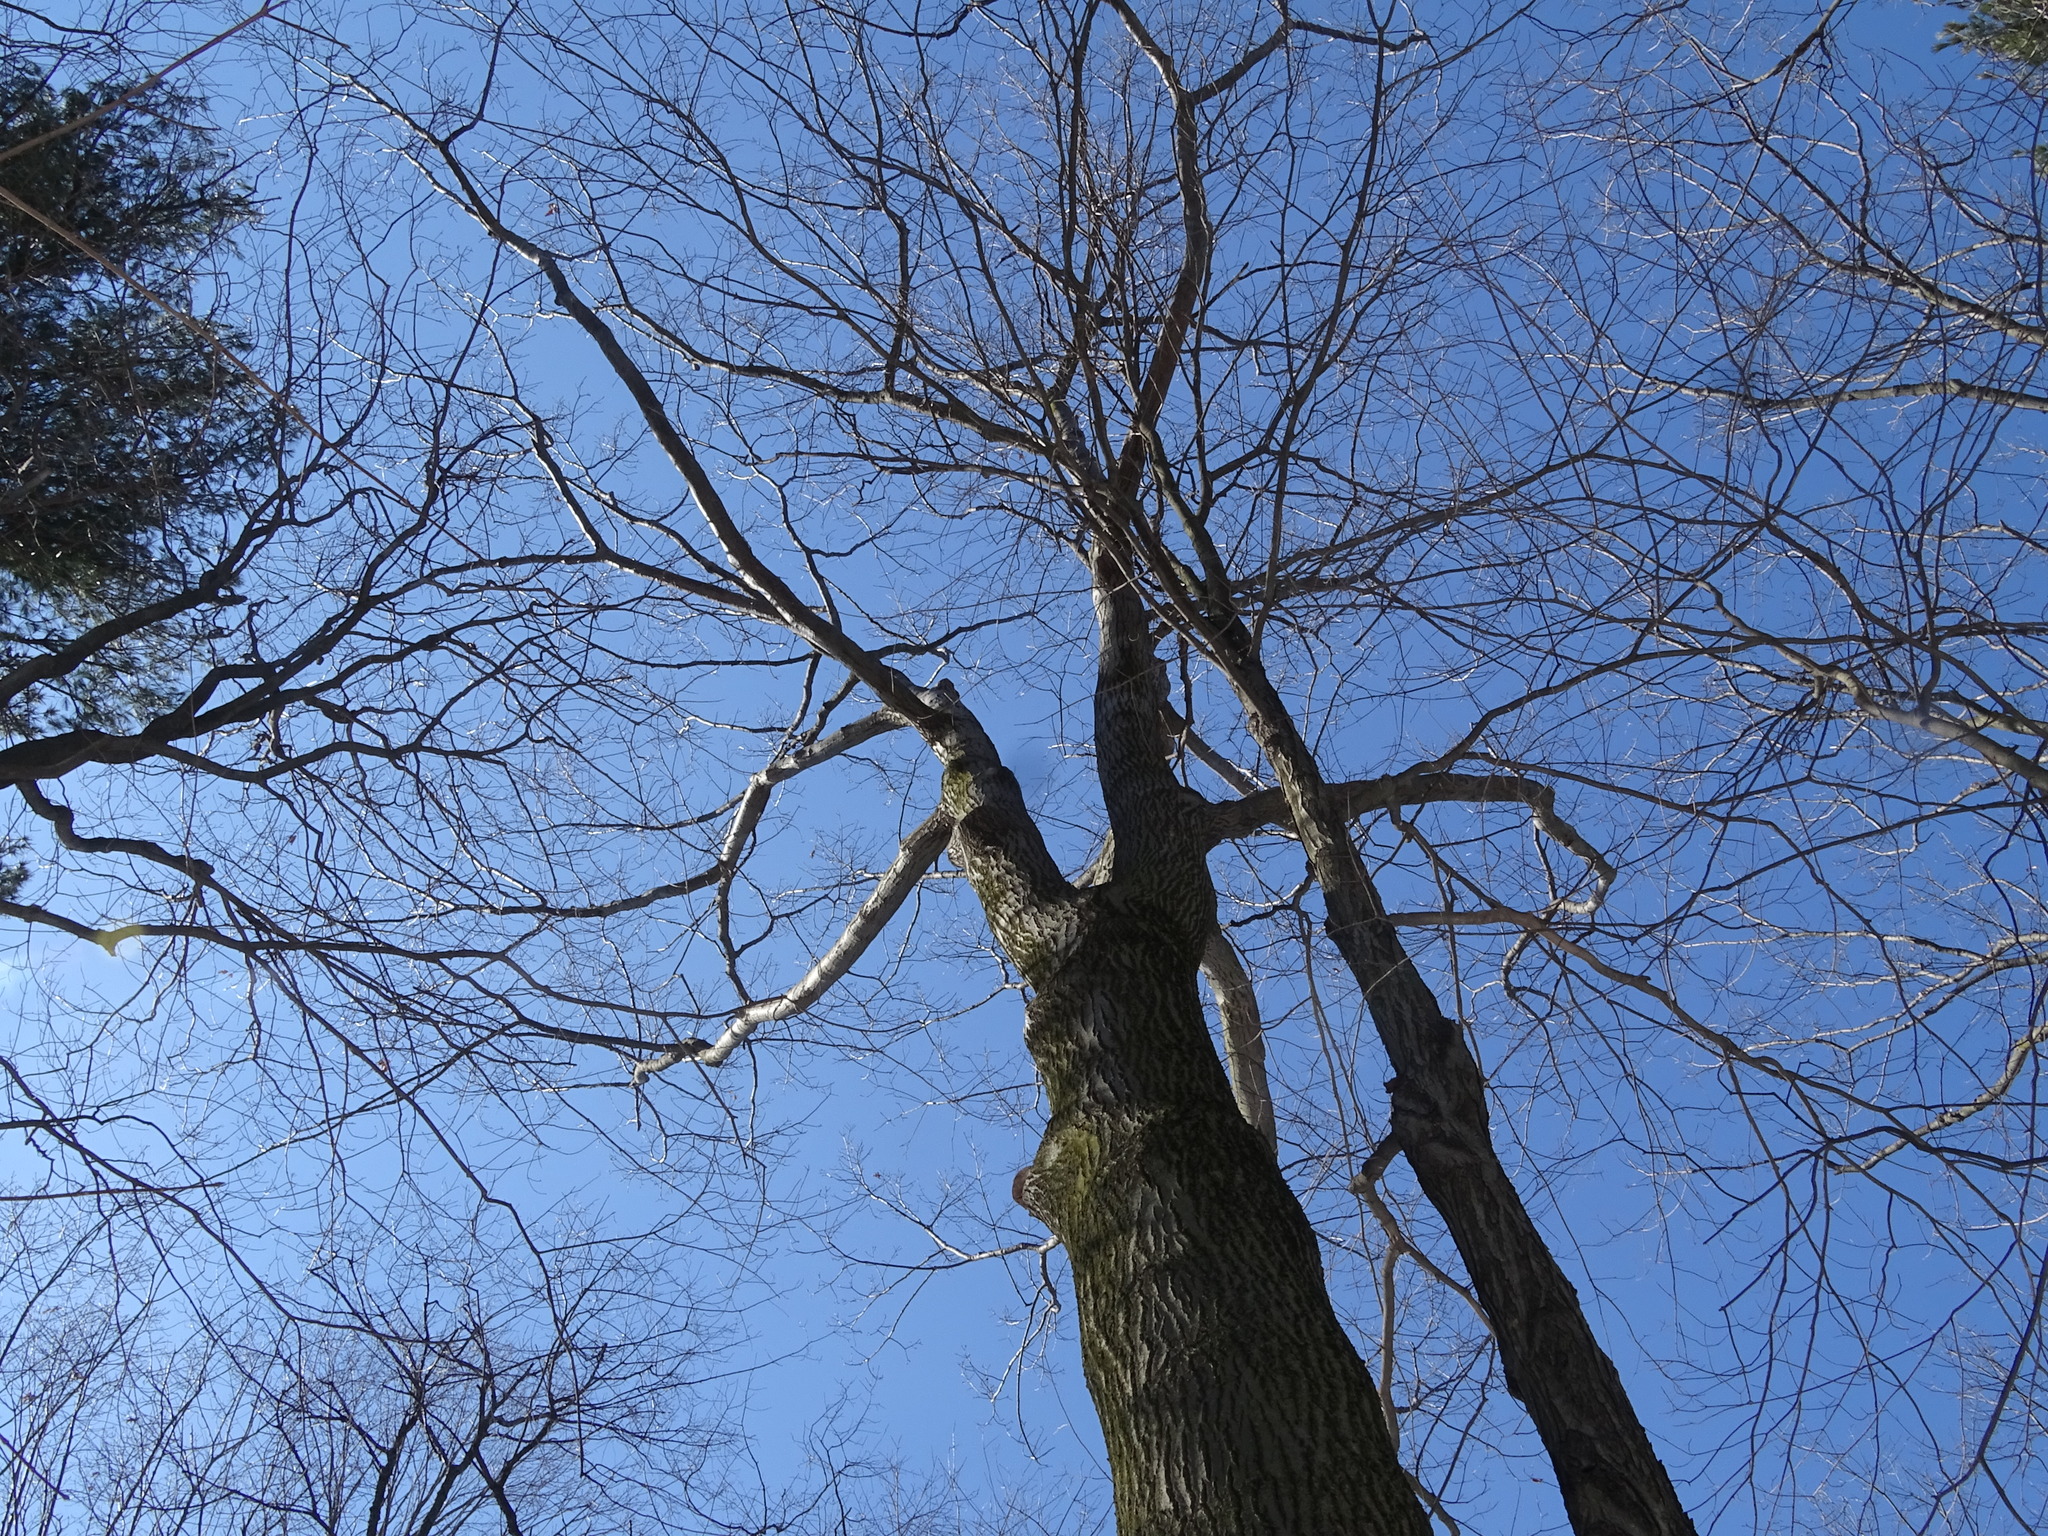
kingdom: Plantae
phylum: Tracheophyta
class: Magnoliopsida
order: Fagales
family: Fagaceae
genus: Quercus
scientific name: Quercus rubra
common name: Red oak
